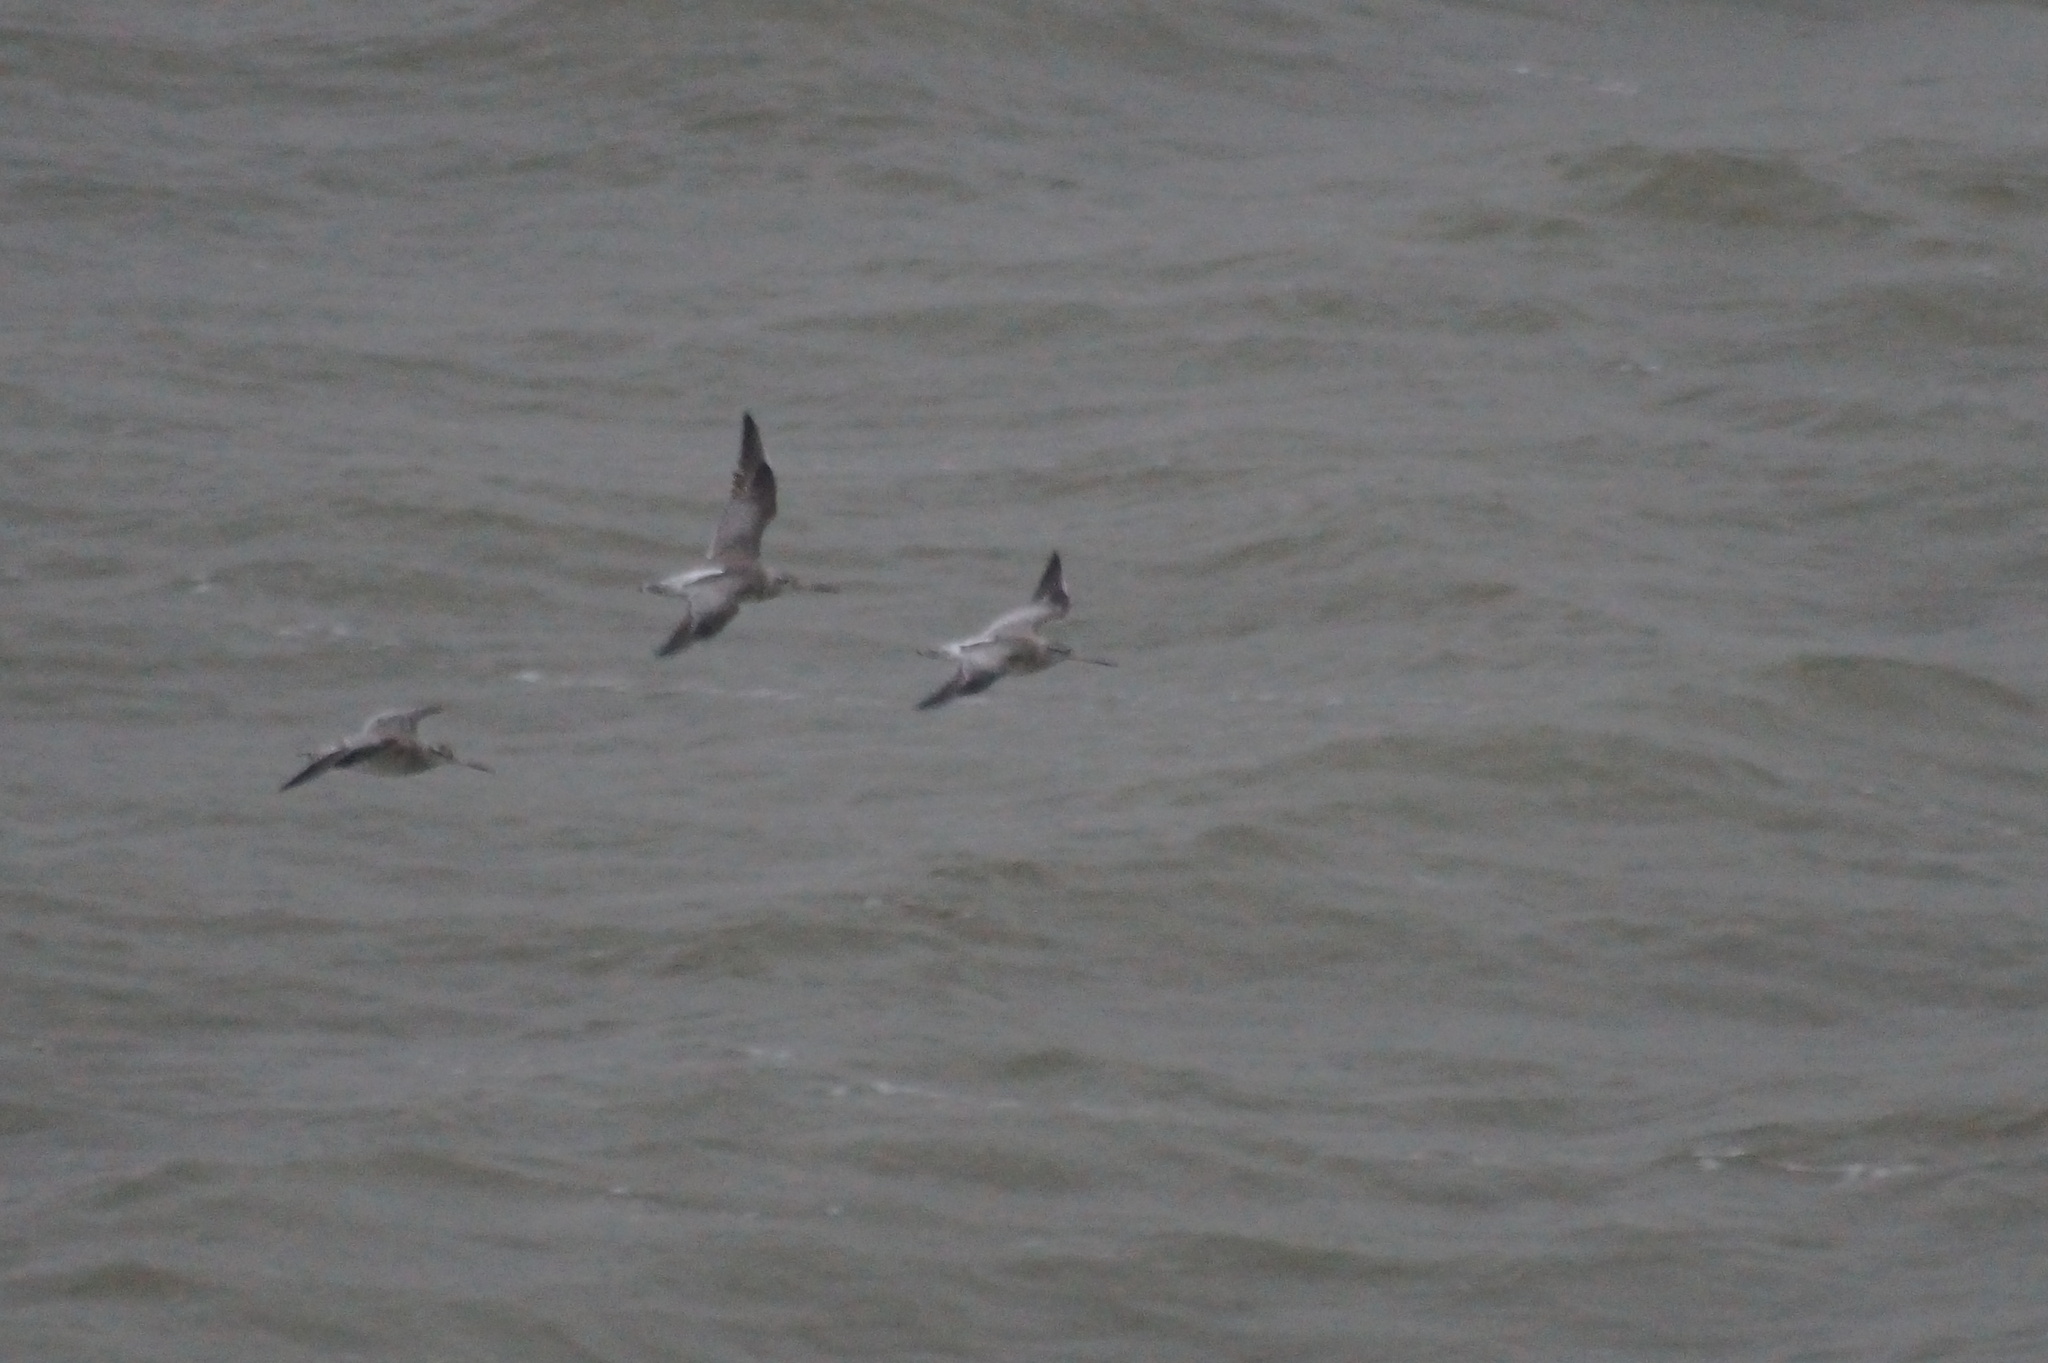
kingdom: Animalia
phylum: Chordata
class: Aves
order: Charadriiformes
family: Scolopacidae
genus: Limosa
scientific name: Limosa lapponica
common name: Bar-tailed godwit
